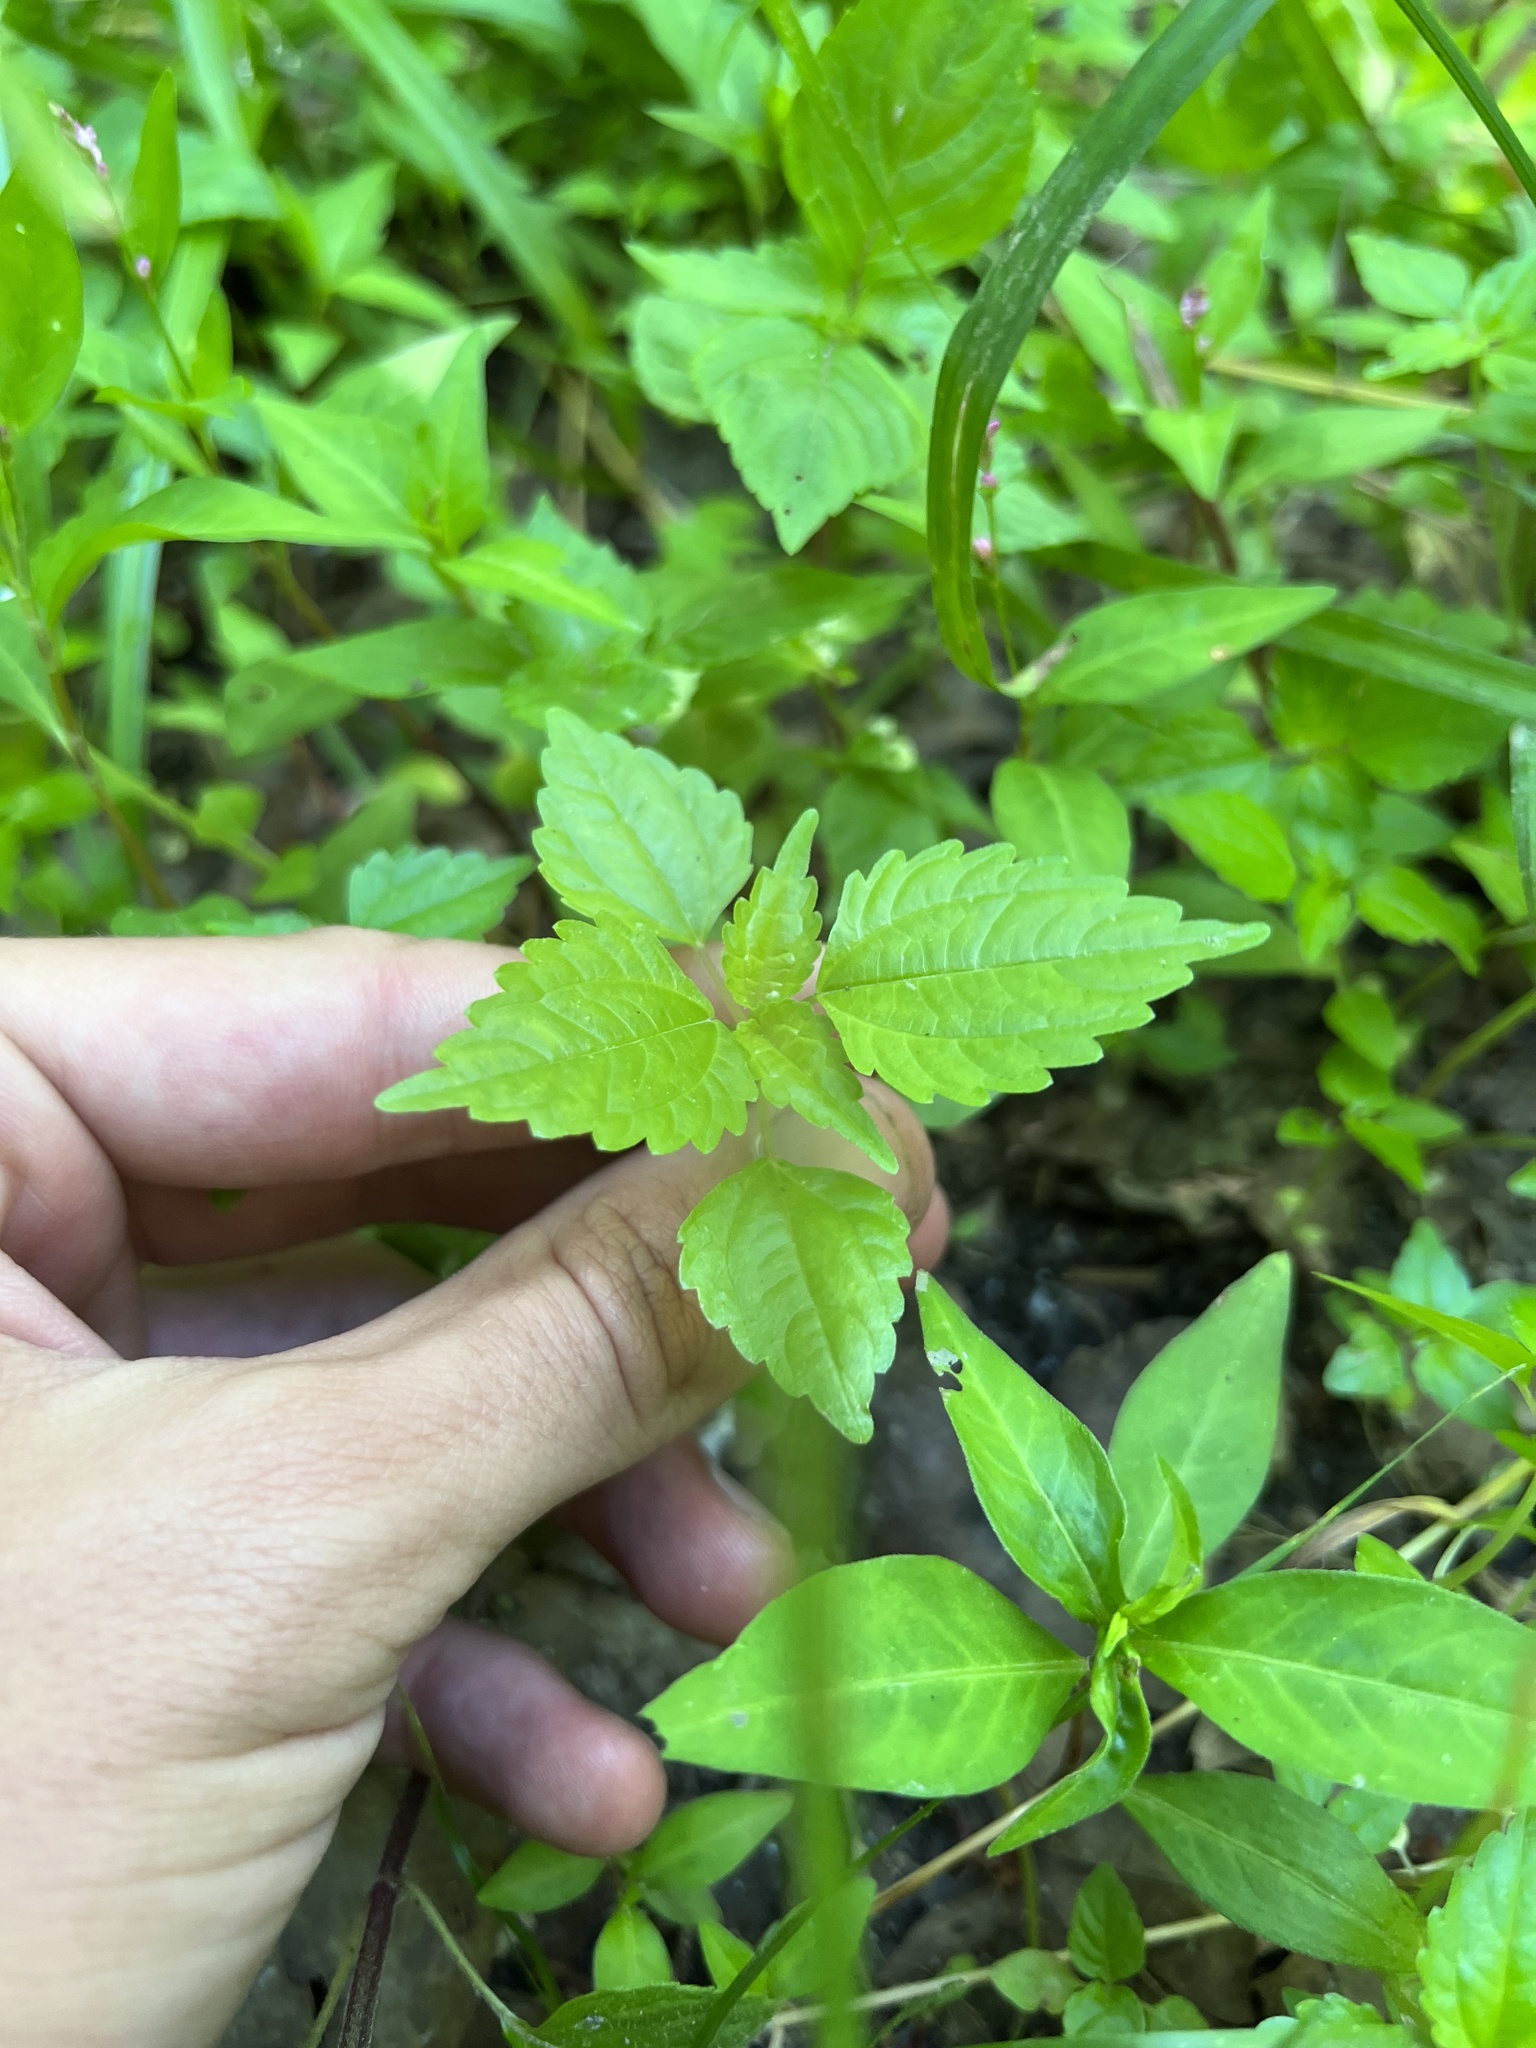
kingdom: Plantae
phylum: Tracheophyta
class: Magnoliopsida
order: Rosales
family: Urticaceae
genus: Pilea
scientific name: Pilea pumila
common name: Clearweed
